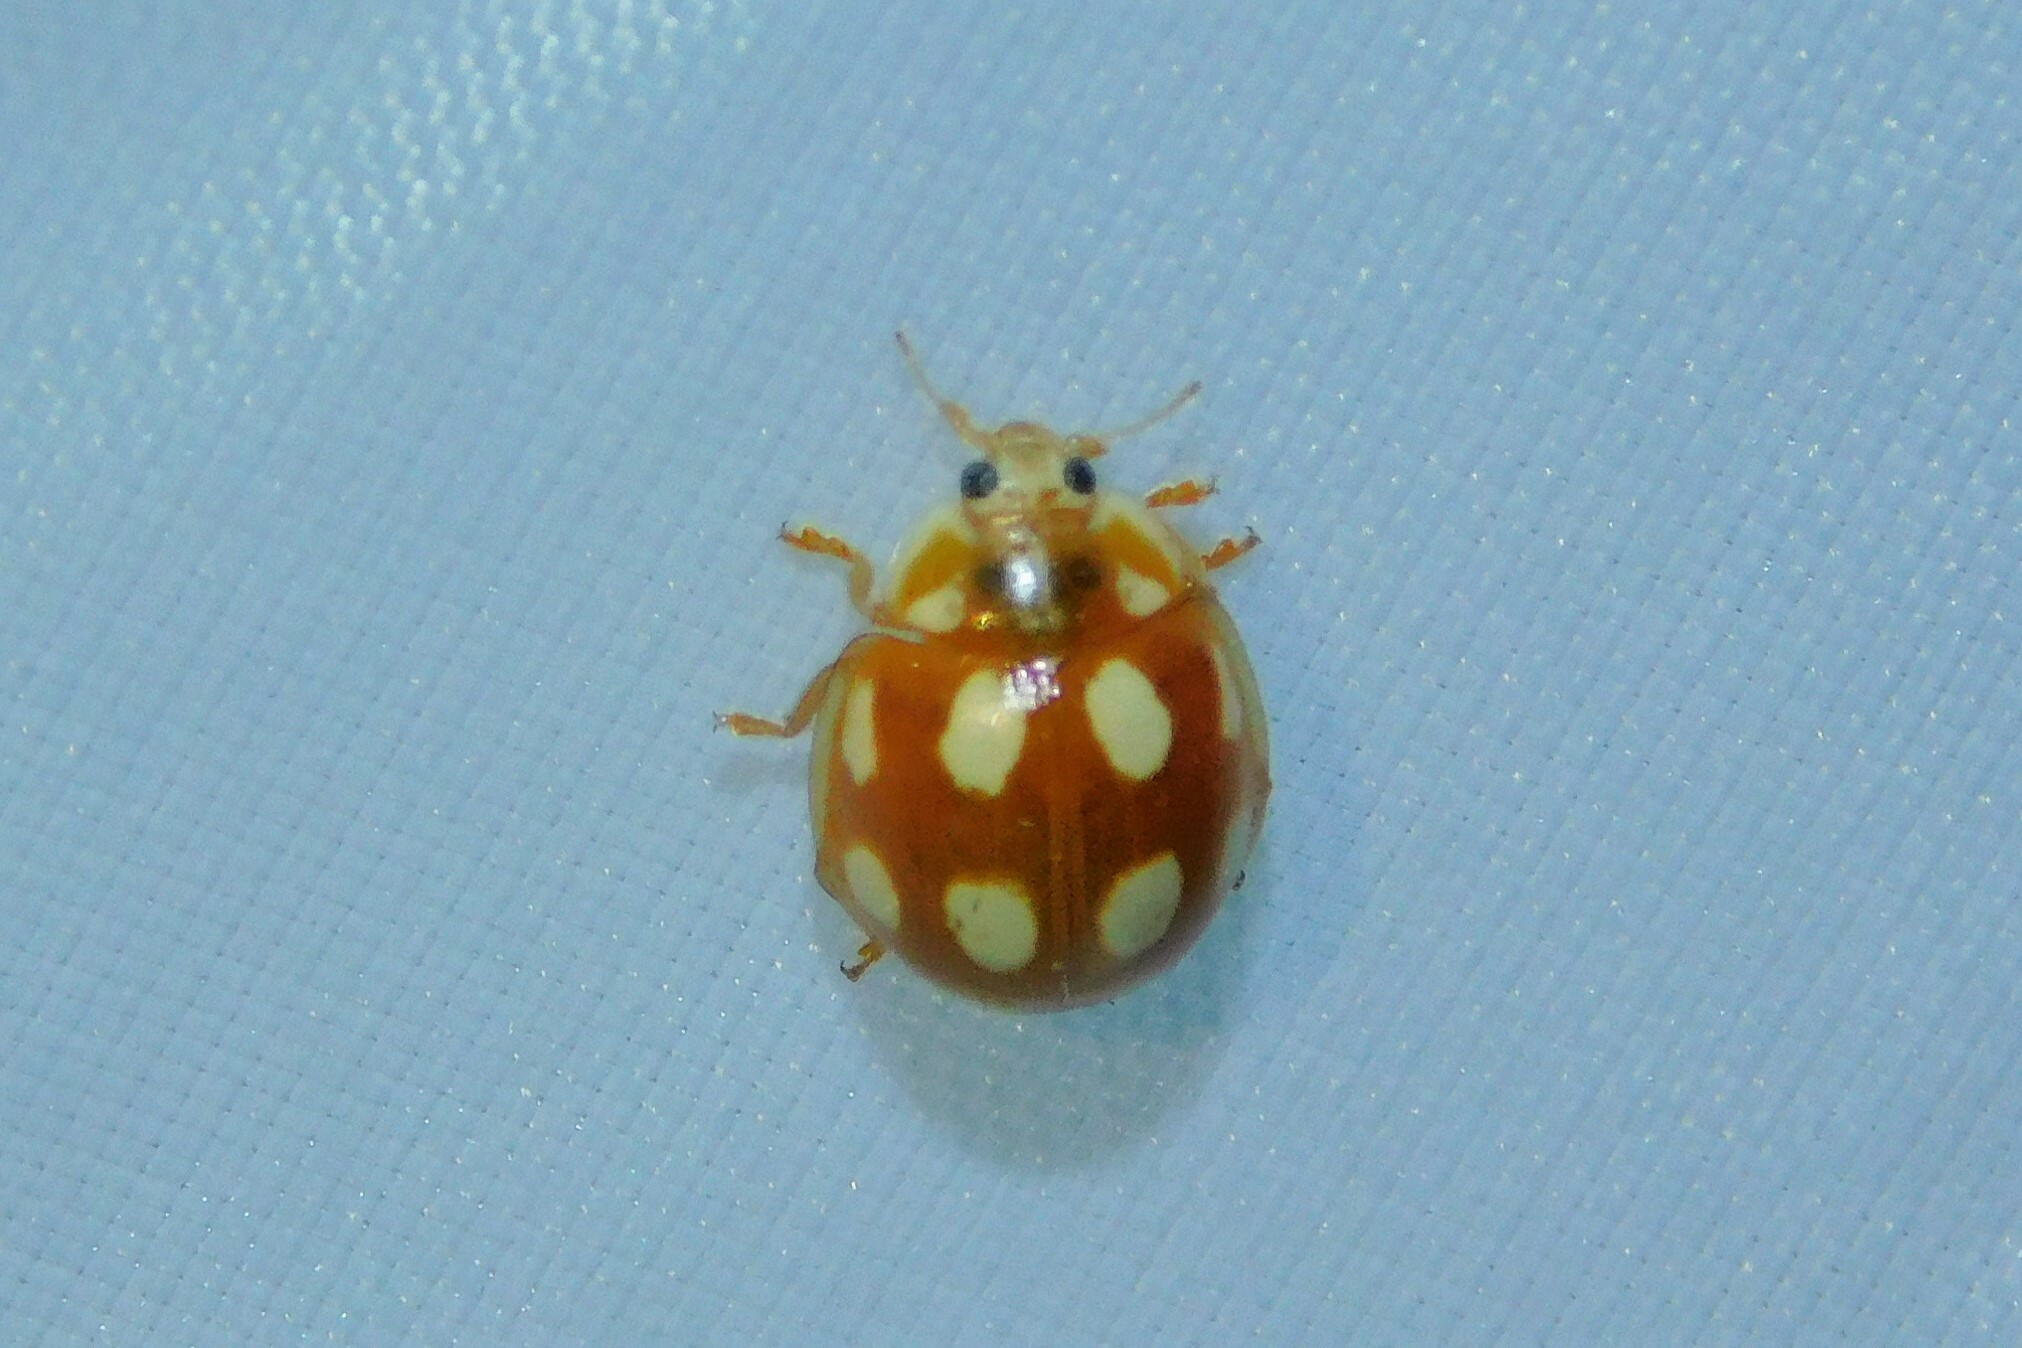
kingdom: Animalia
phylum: Arthropoda
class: Insecta
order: Coleoptera
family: Coccinellidae
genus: Calvia
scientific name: Calvia decemguttata
